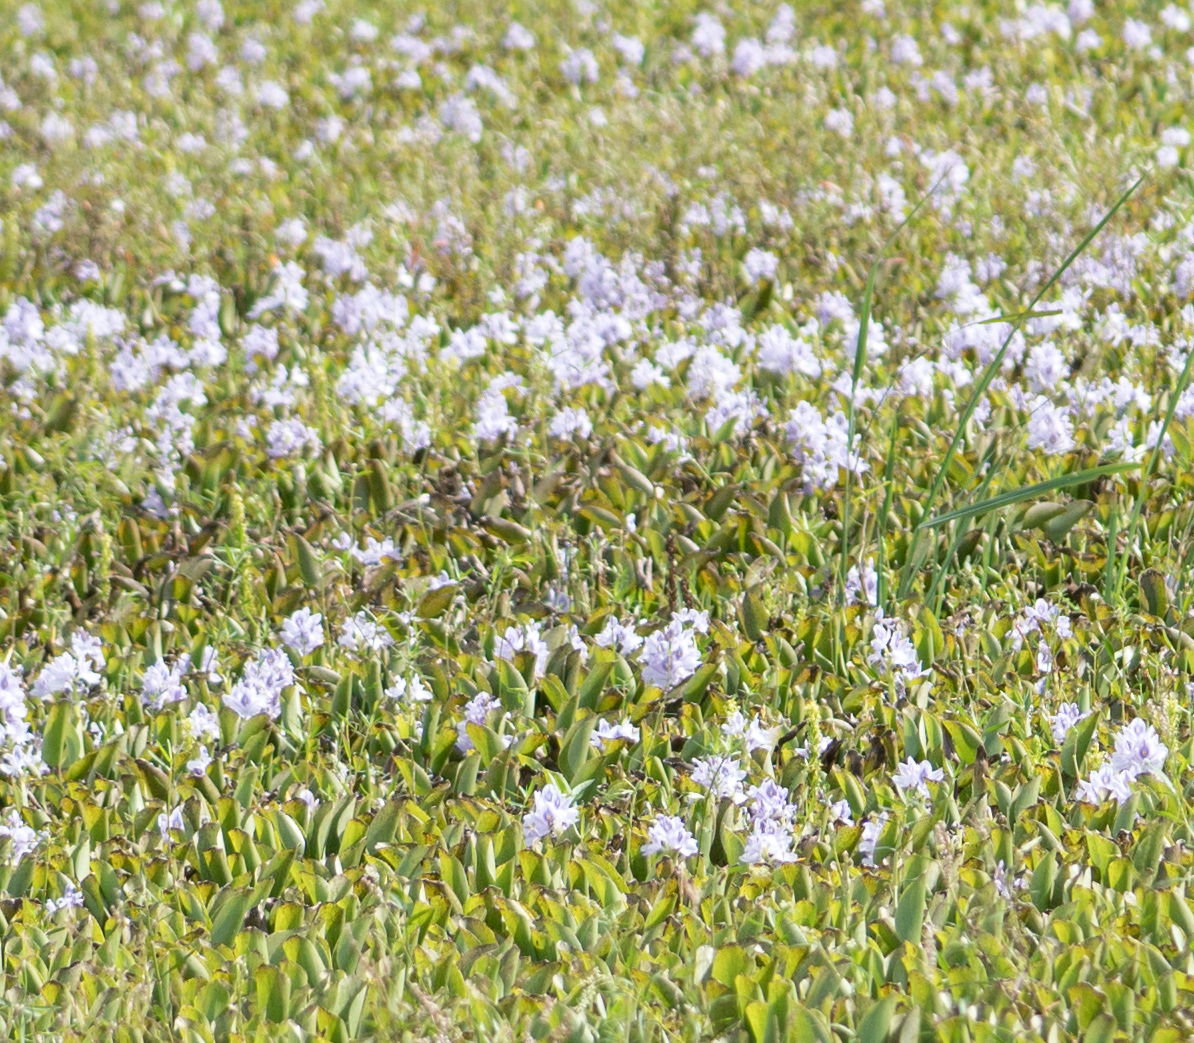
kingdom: Plantae
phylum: Tracheophyta
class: Liliopsida
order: Commelinales
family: Pontederiaceae
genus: Pontederia
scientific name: Pontederia crassipes
